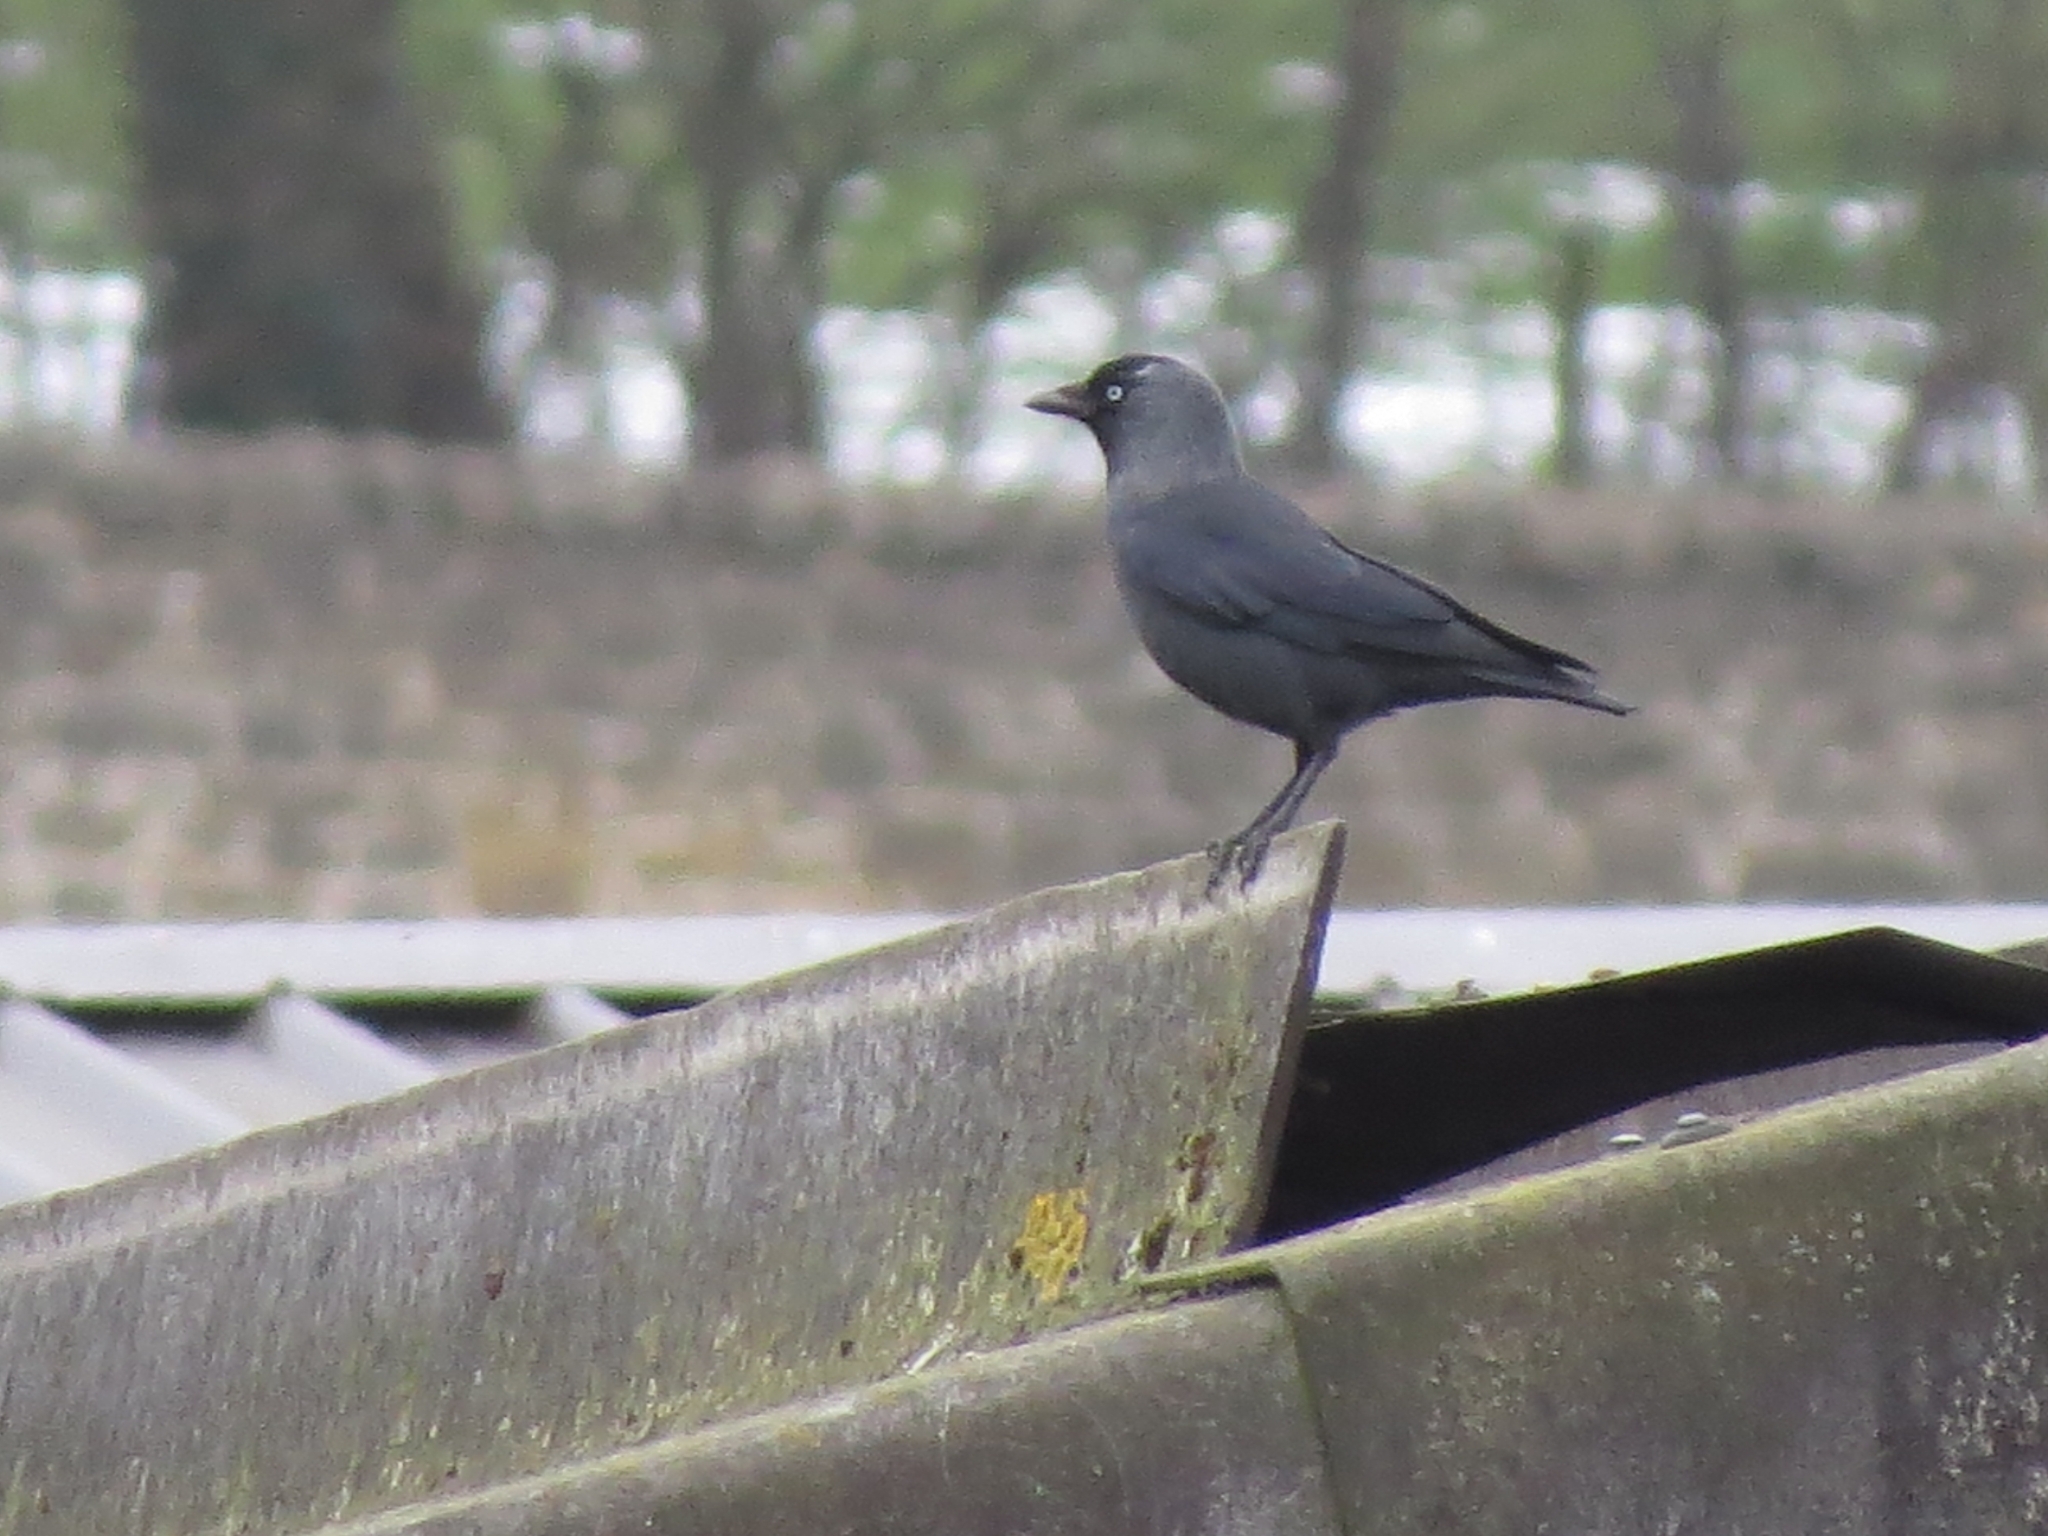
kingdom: Animalia
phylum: Chordata
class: Aves
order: Passeriformes
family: Corvidae
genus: Coloeus
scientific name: Coloeus monedula
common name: Western jackdaw
